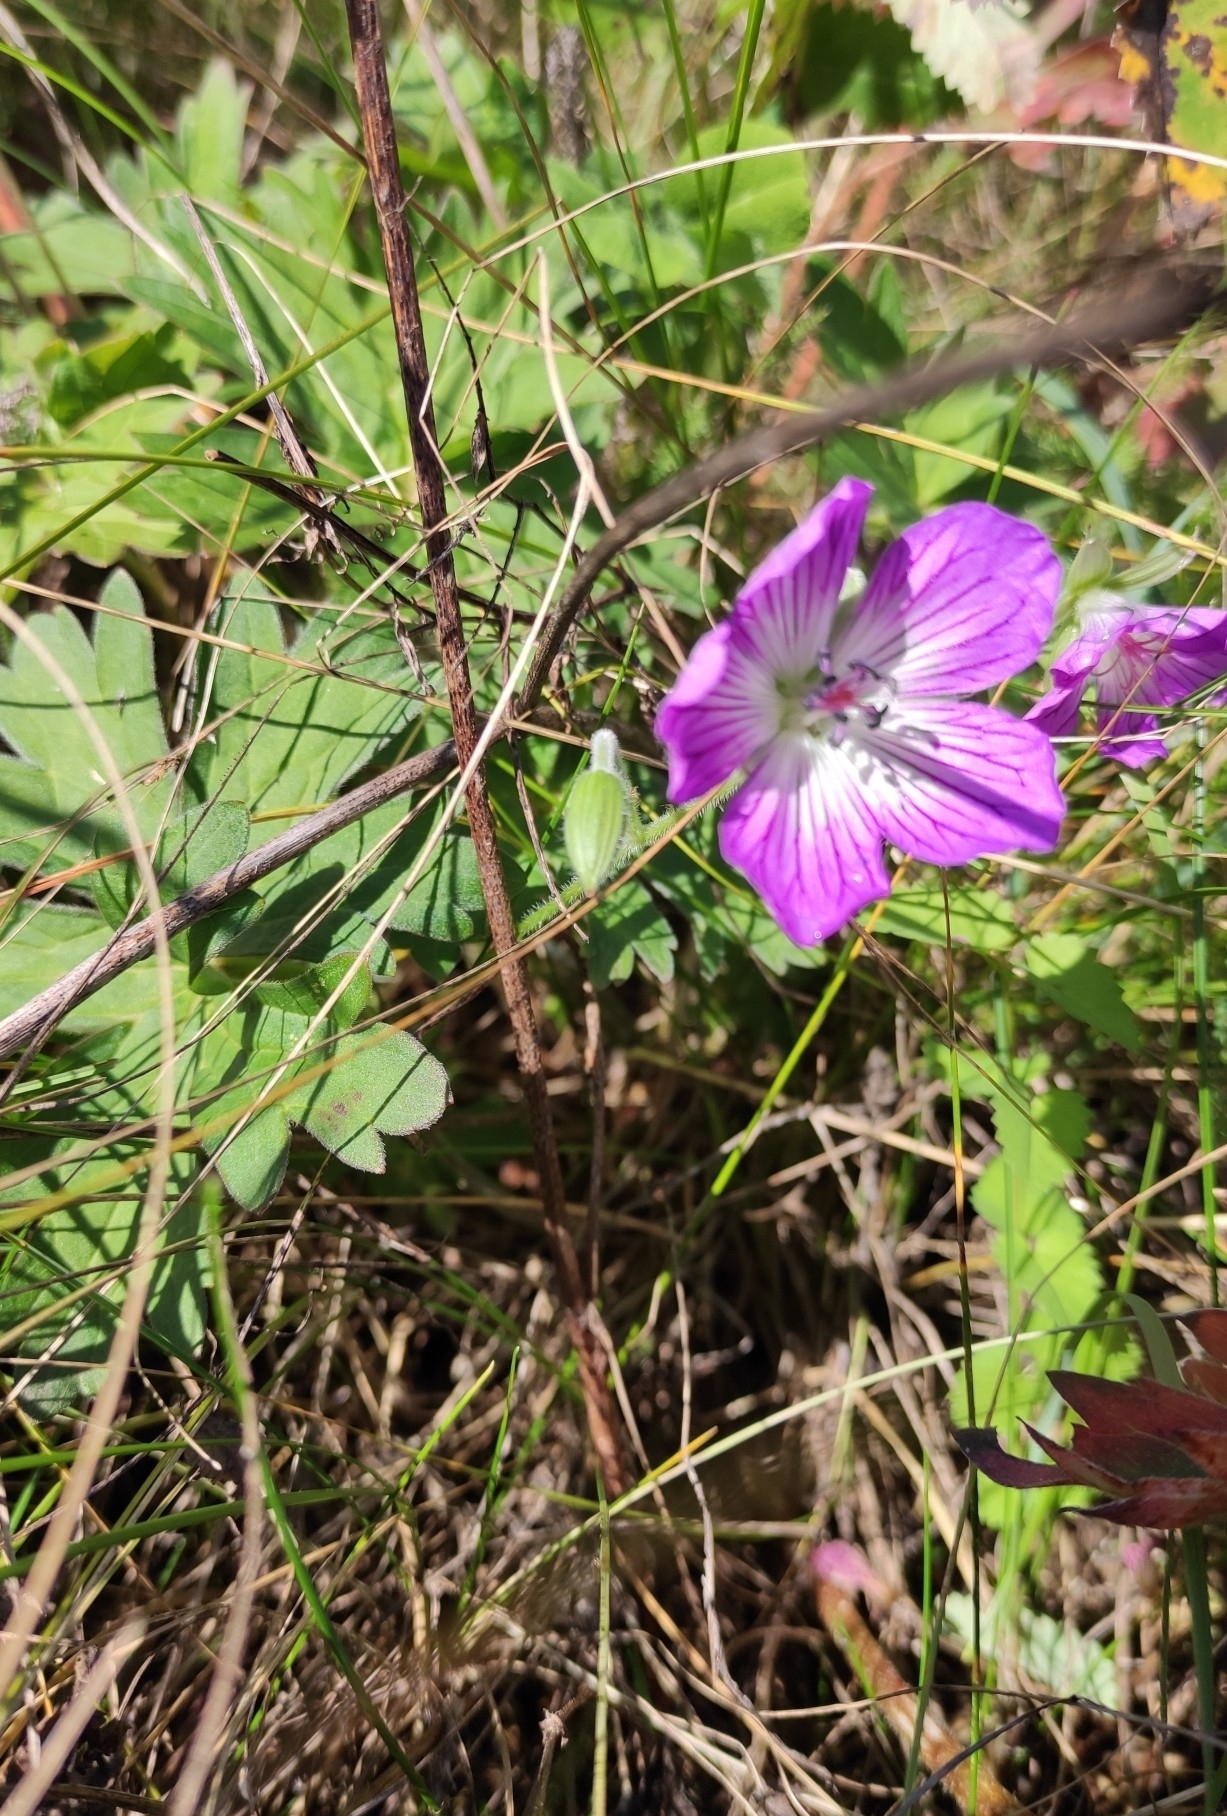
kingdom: Plantae
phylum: Tracheophyta
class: Magnoliopsida
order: Geraniales
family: Geraniaceae
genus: Geranium
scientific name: Geranium wlassovianum
